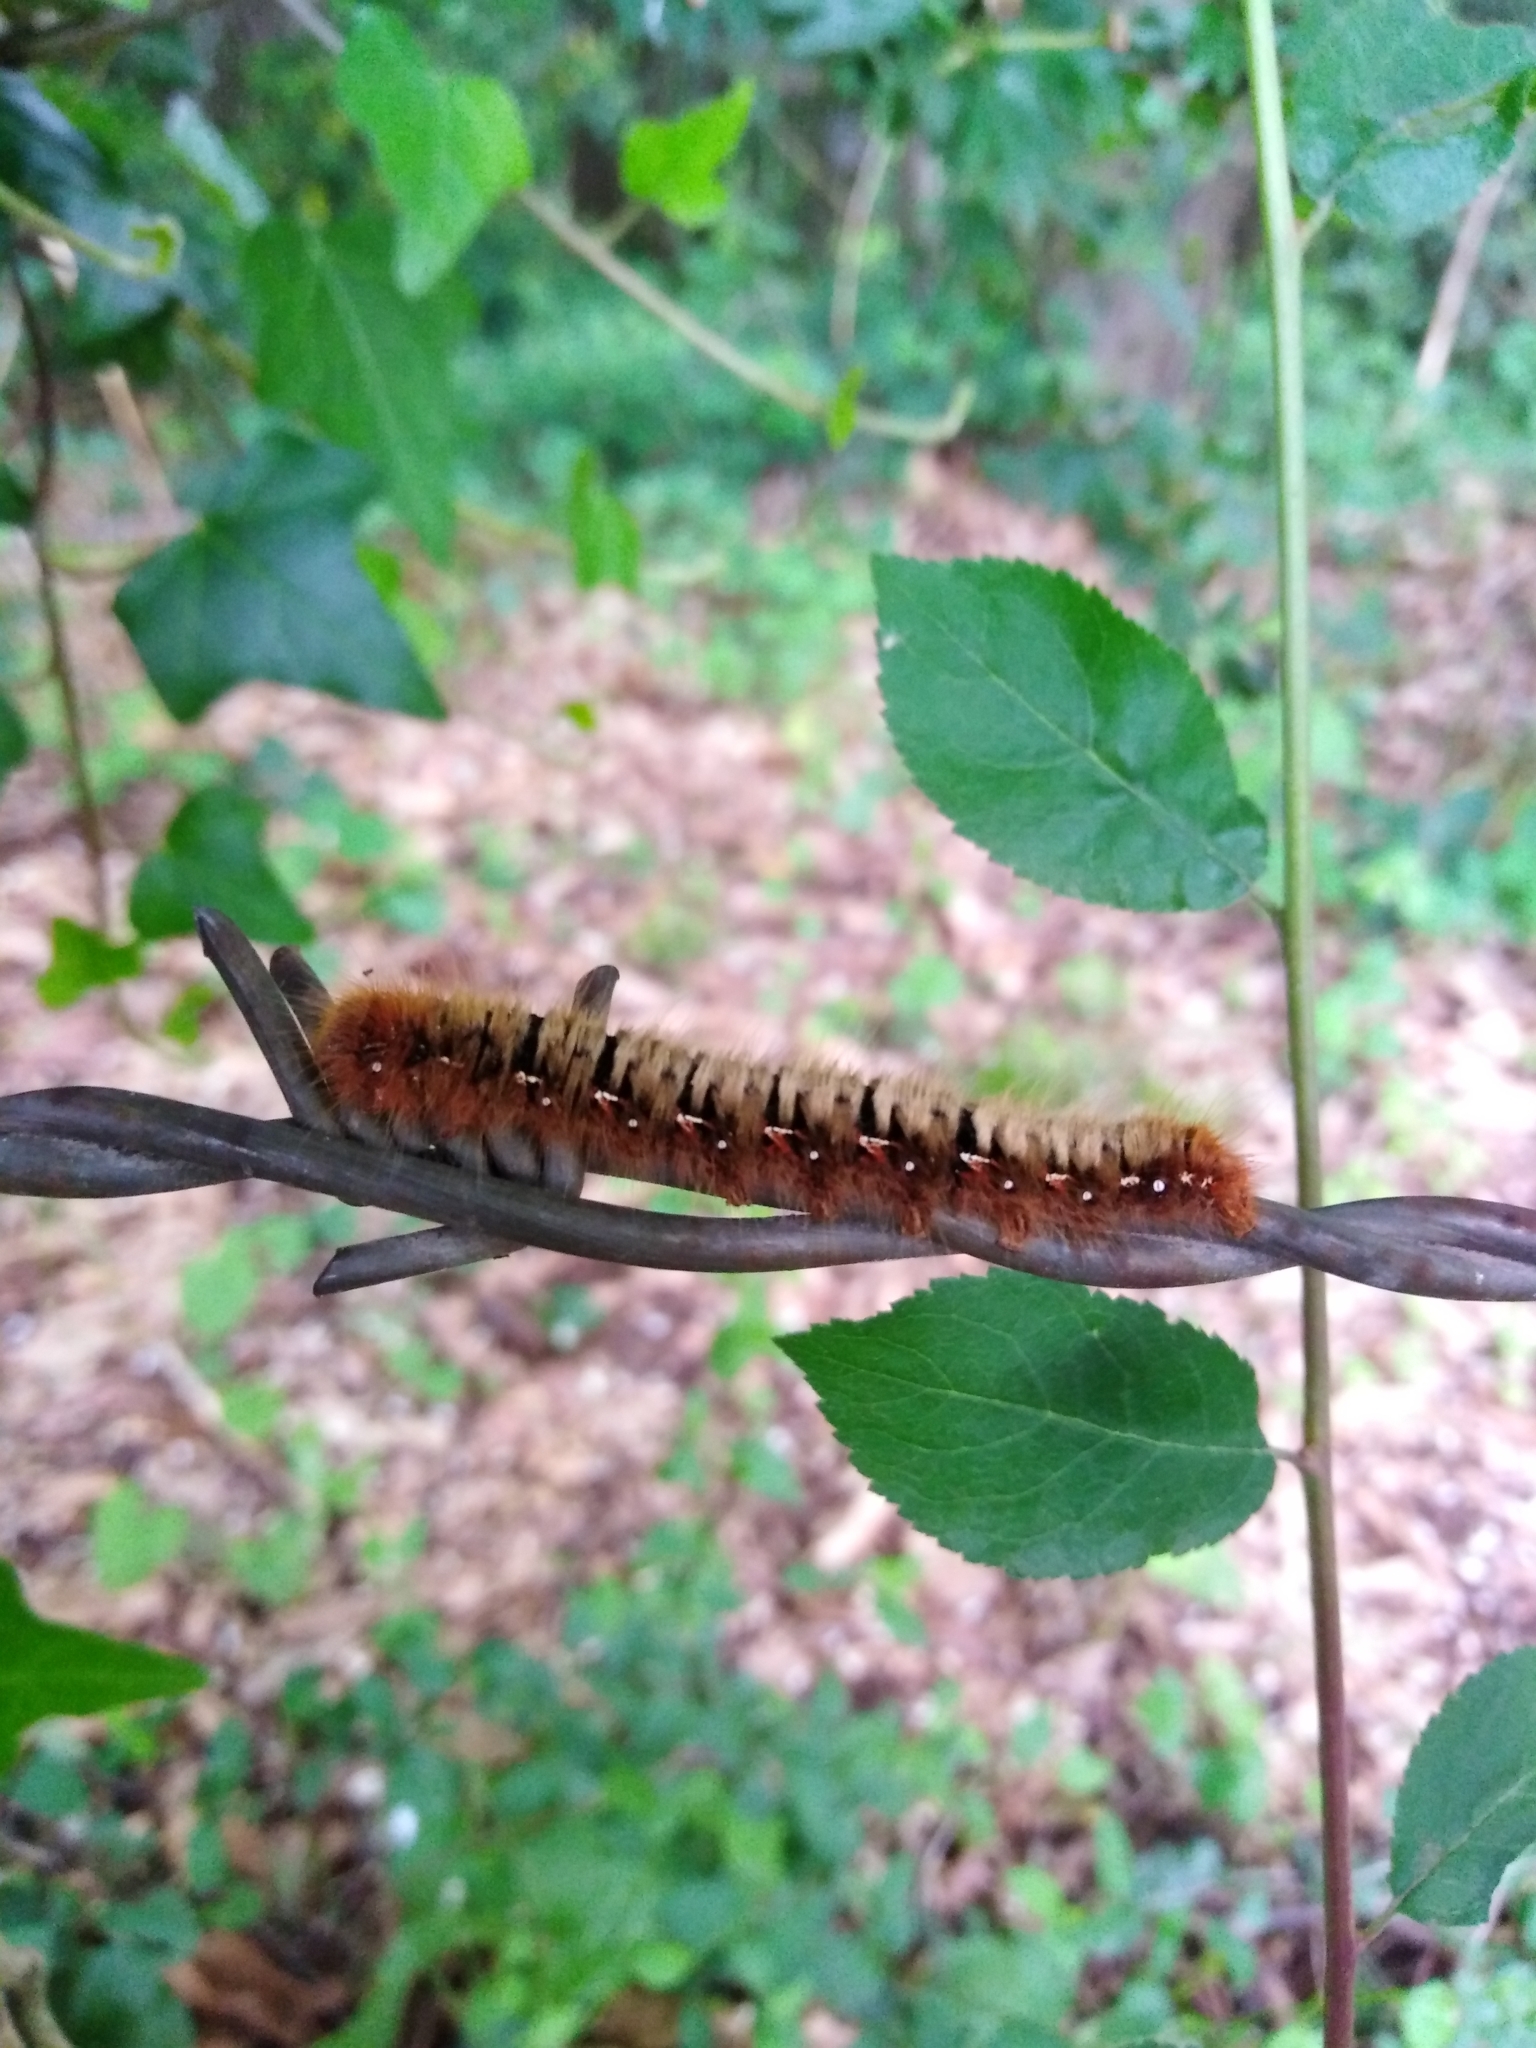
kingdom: Animalia
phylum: Arthropoda
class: Insecta
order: Lepidoptera
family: Lasiocampidae
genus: Lasiocampa
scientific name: Lasiocampa quercus
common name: Oak eggar
